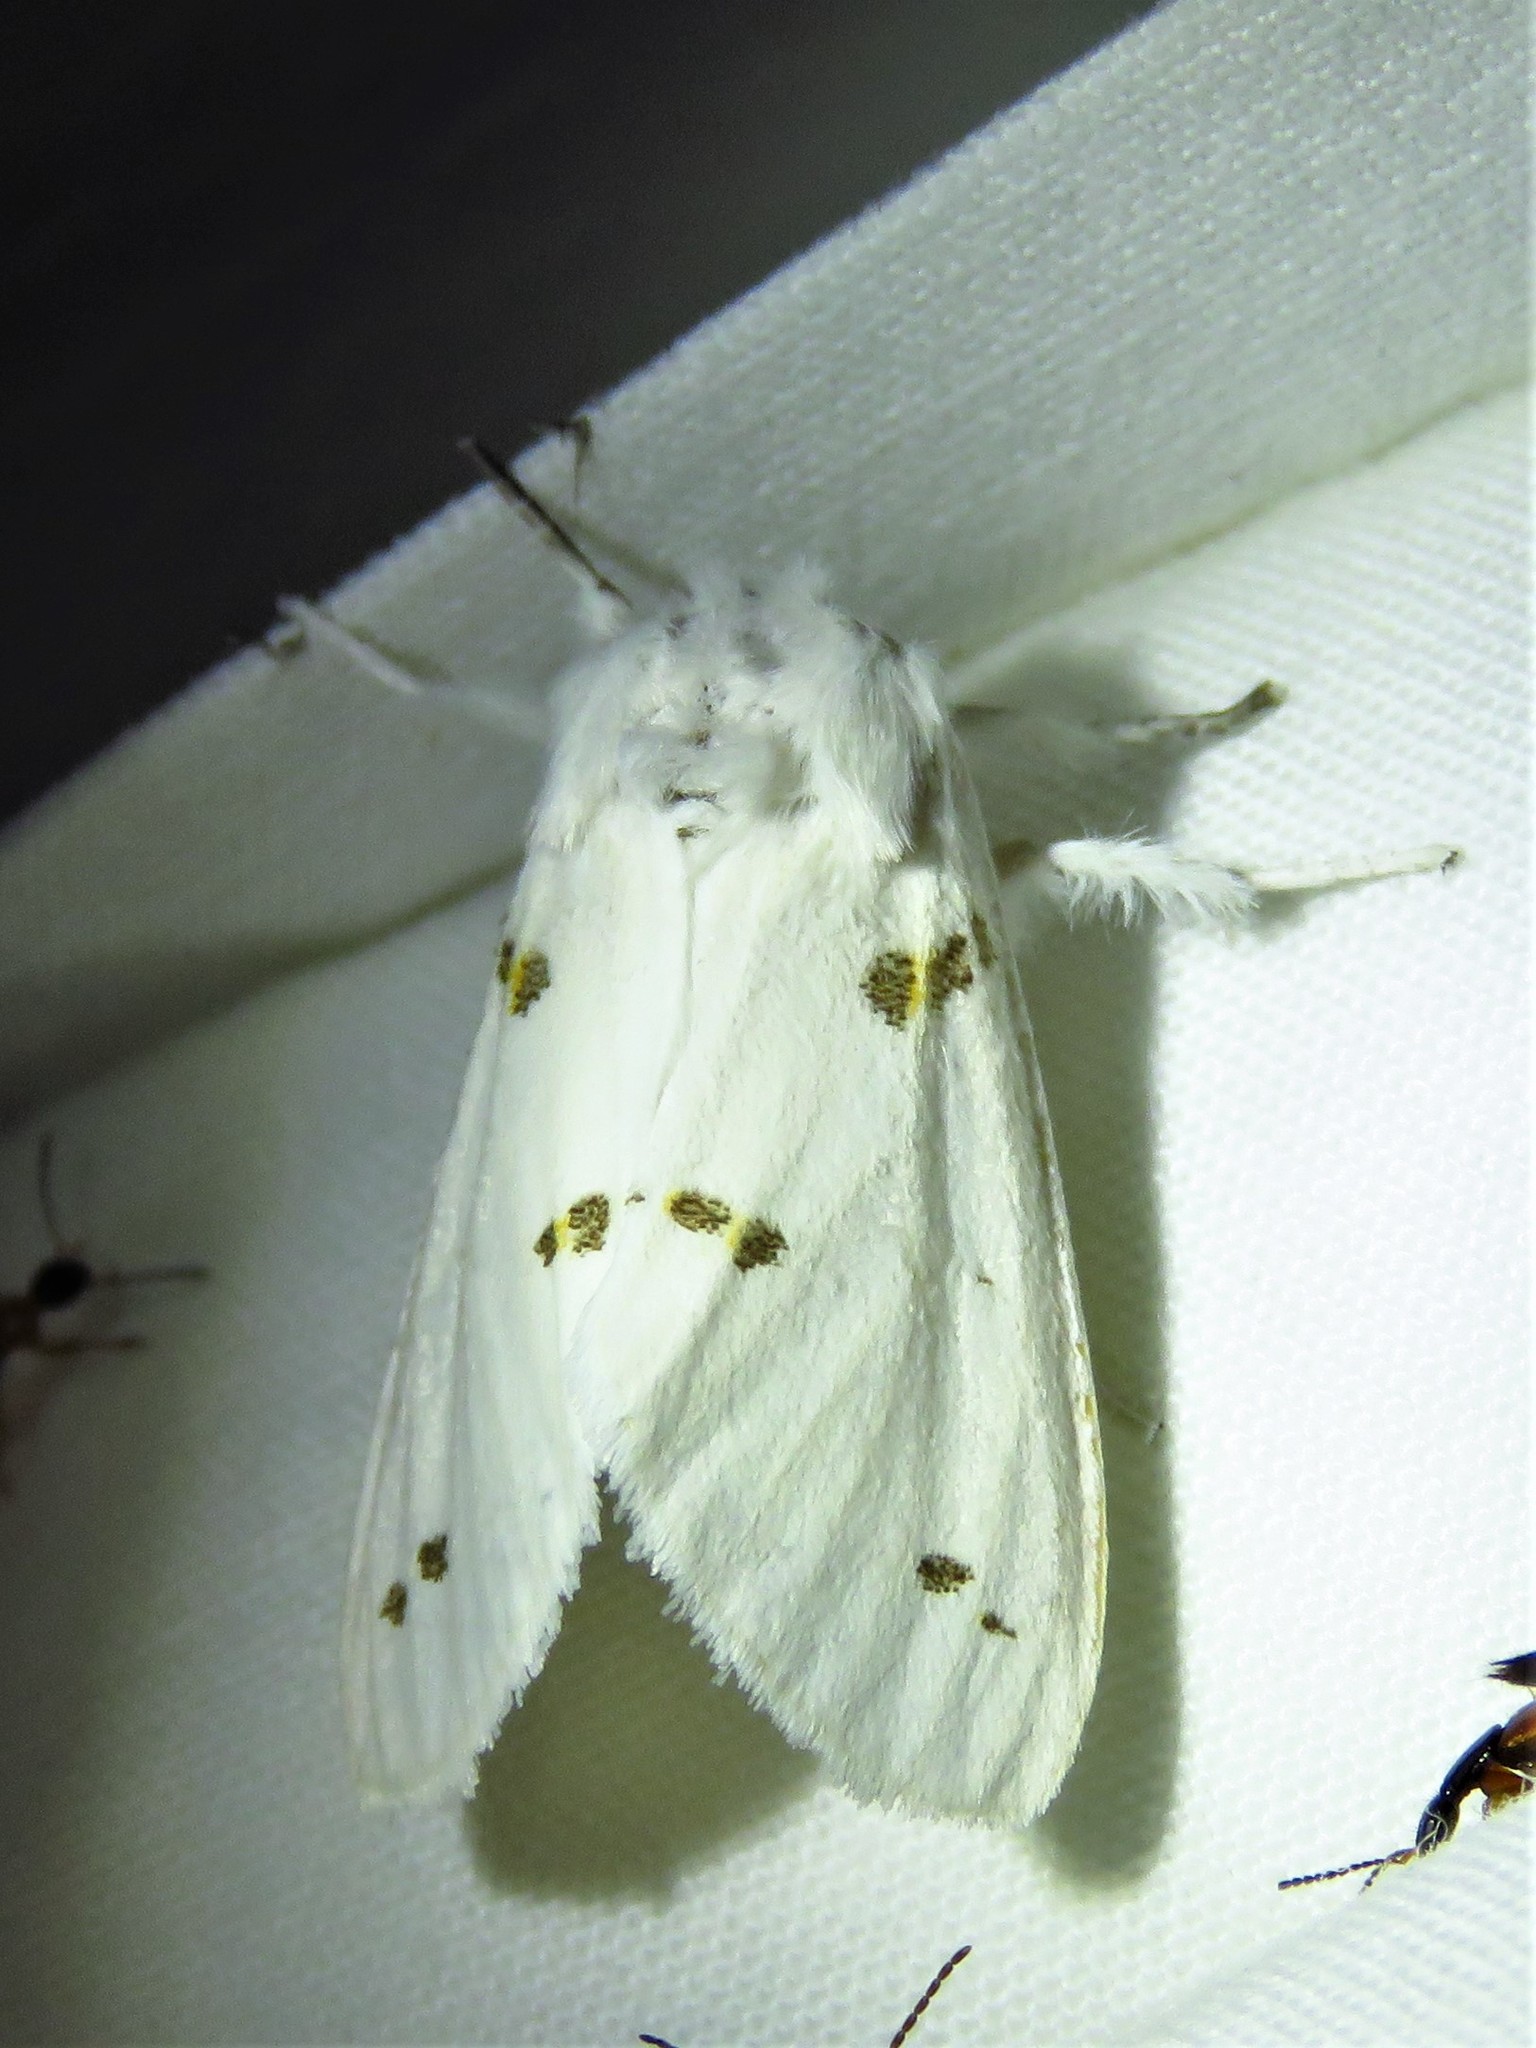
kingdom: Animalia
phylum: Arthropoda
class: Insecta
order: Lepidoptera
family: Erebidae
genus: Euerythra
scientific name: Euerythra trimaculata
